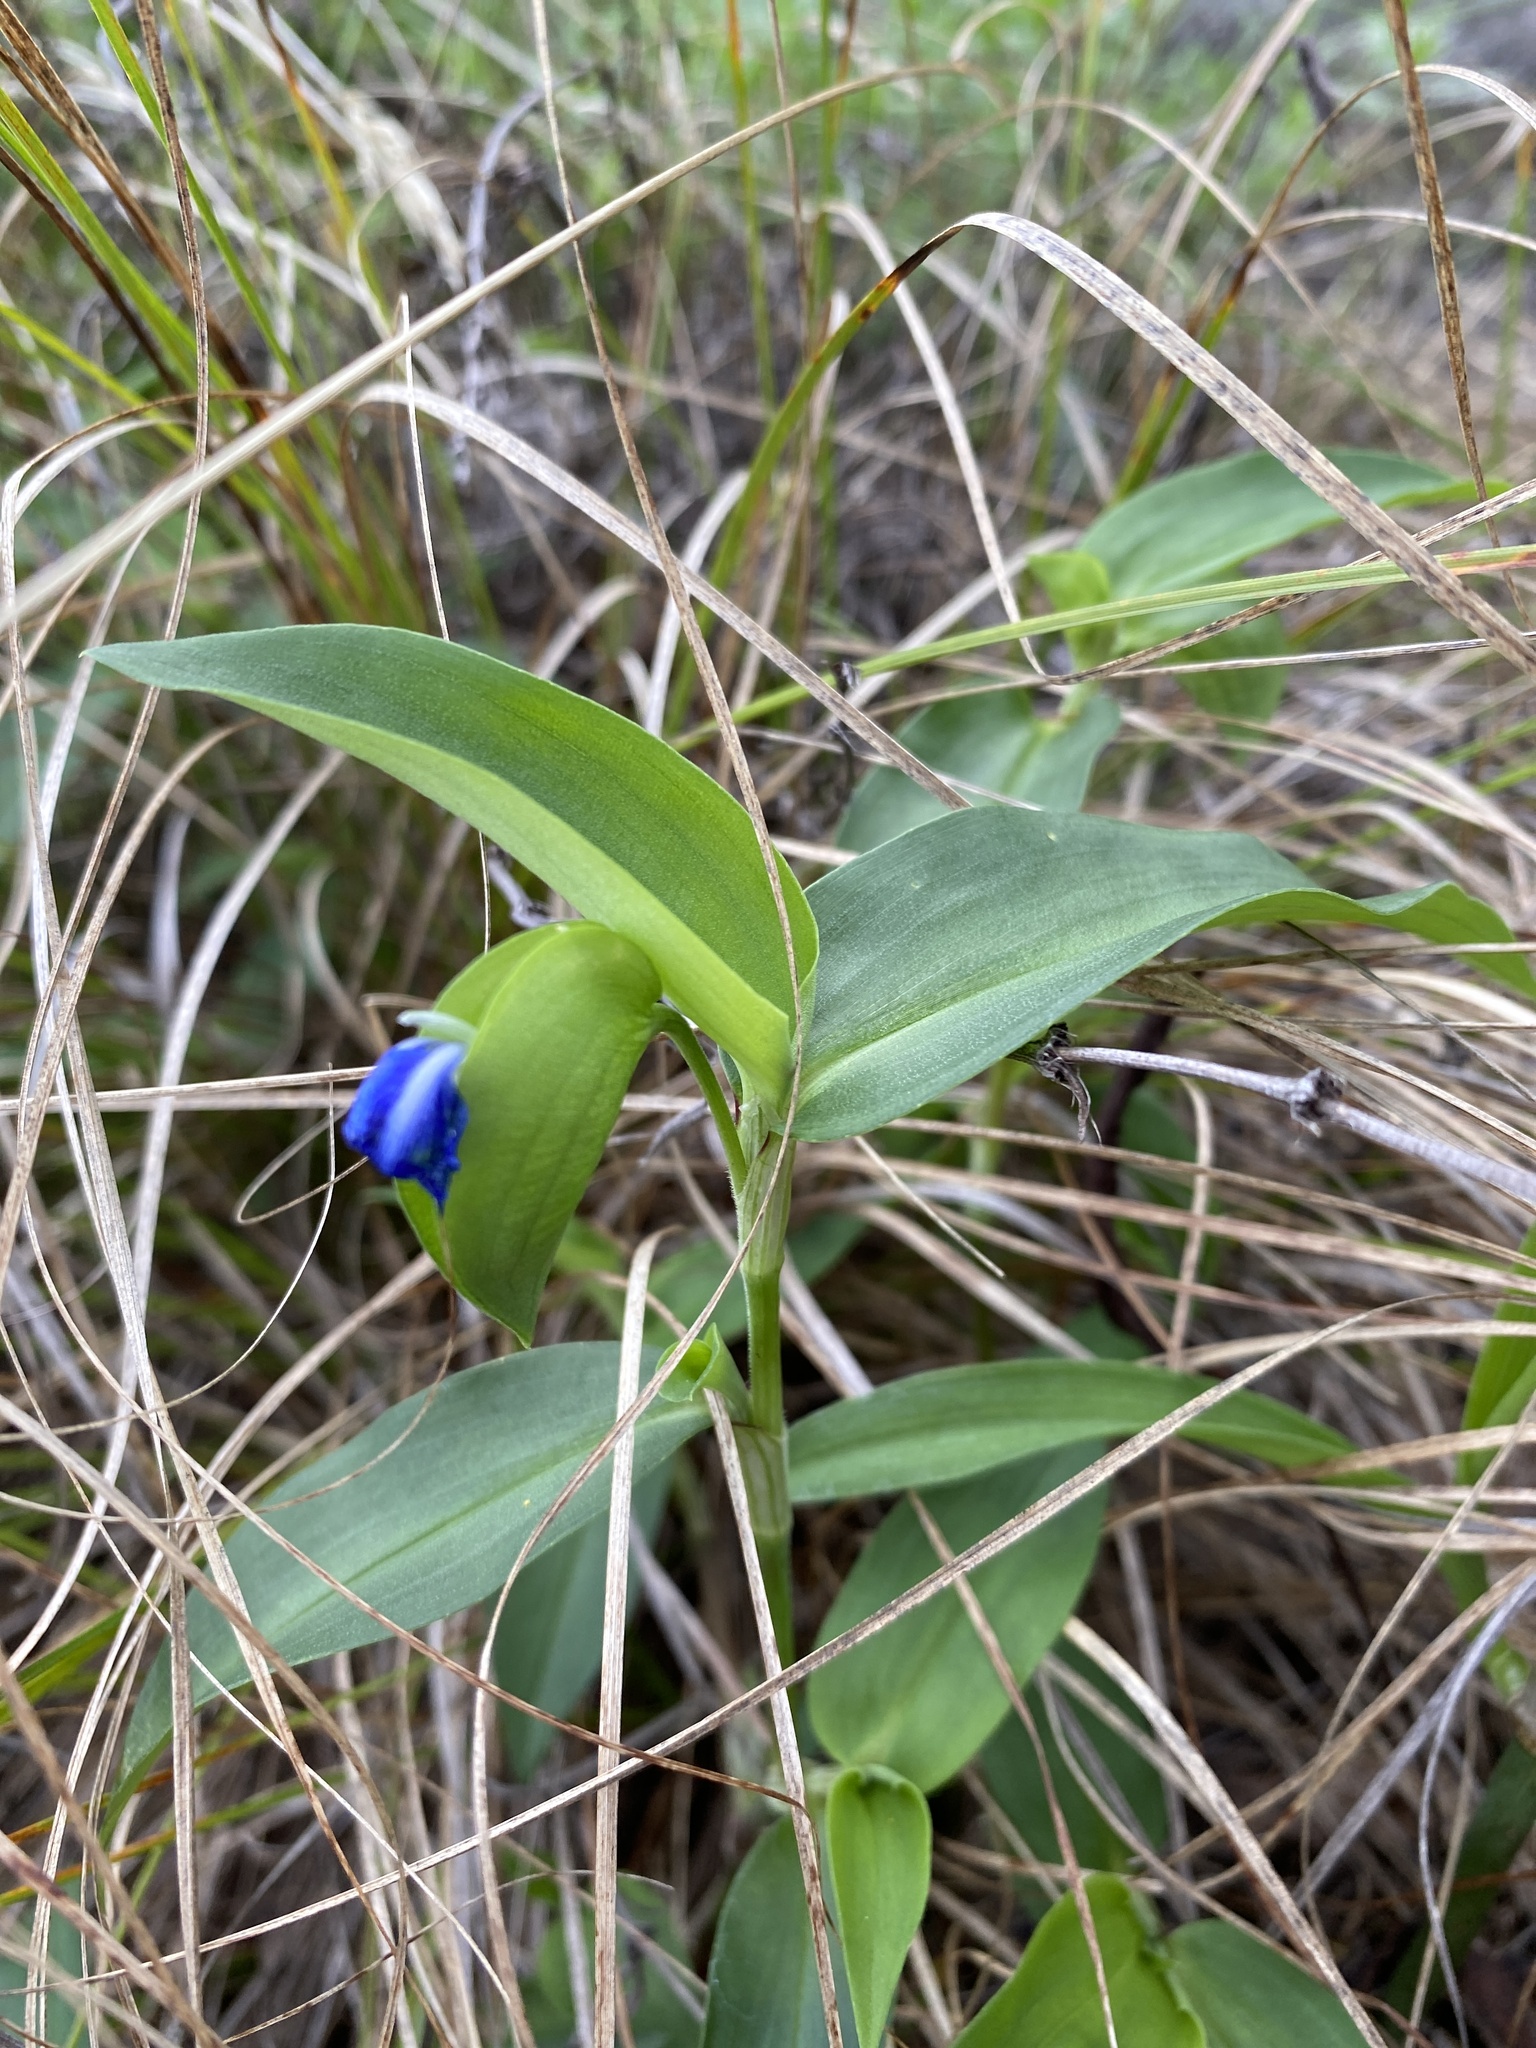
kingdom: Plantae
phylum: Tracheophyta
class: Liliopsida
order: Commelinales
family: Commelinaceae
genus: Commelina
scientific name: Commelina communis
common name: Asiatic dayflower
